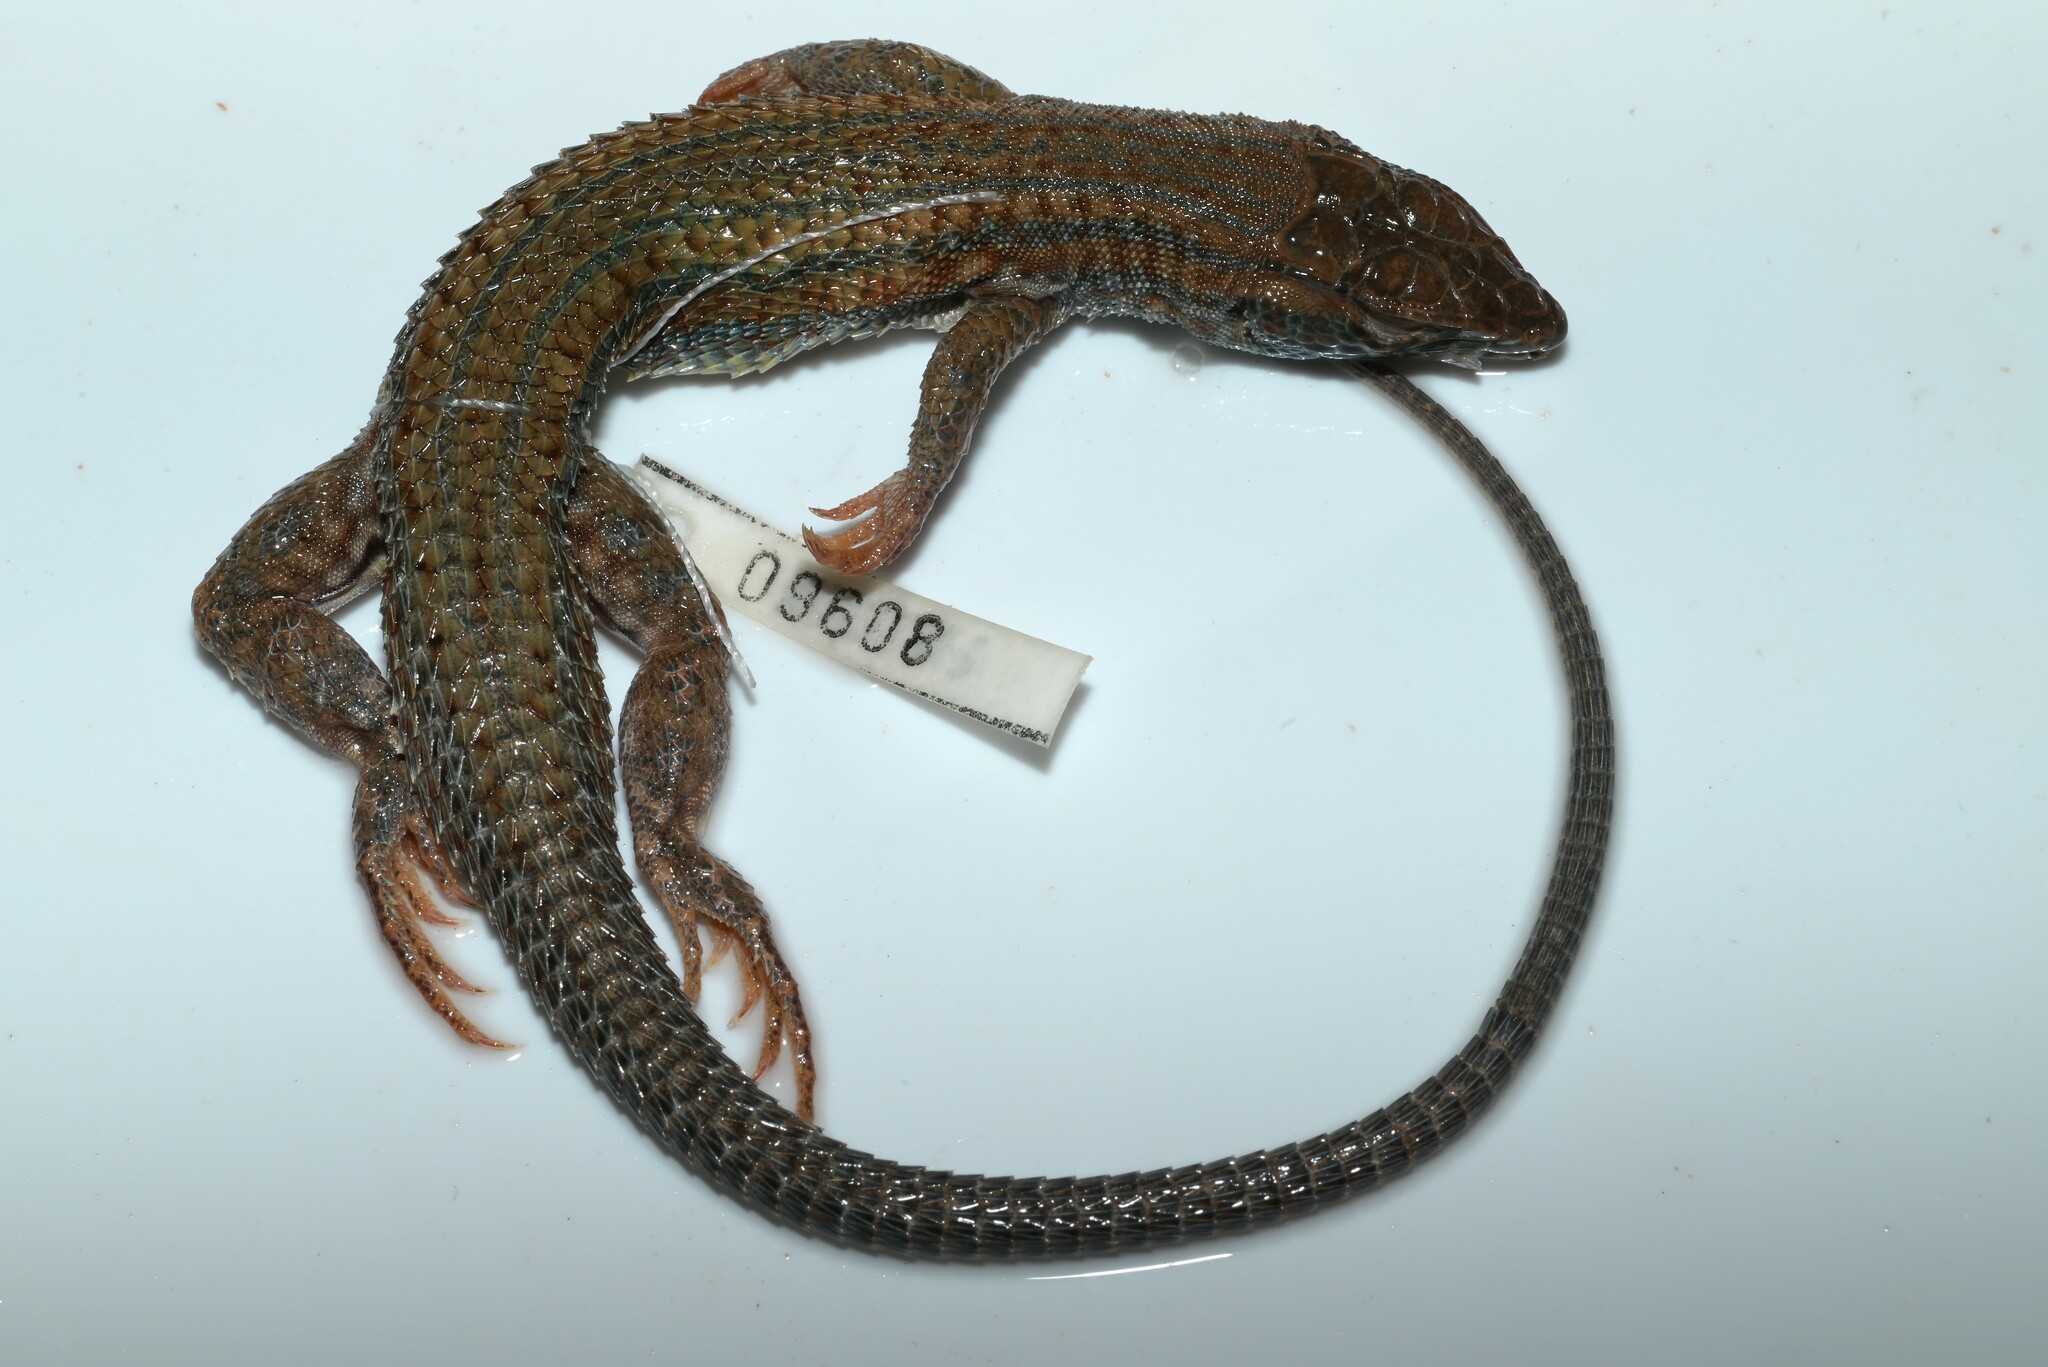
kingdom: Animalia
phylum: Chordata
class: Squamata
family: Lacertidae
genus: Acanthodactylus
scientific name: Acanthodactylus boskianus
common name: Bosc’s fringe-toed lizard
